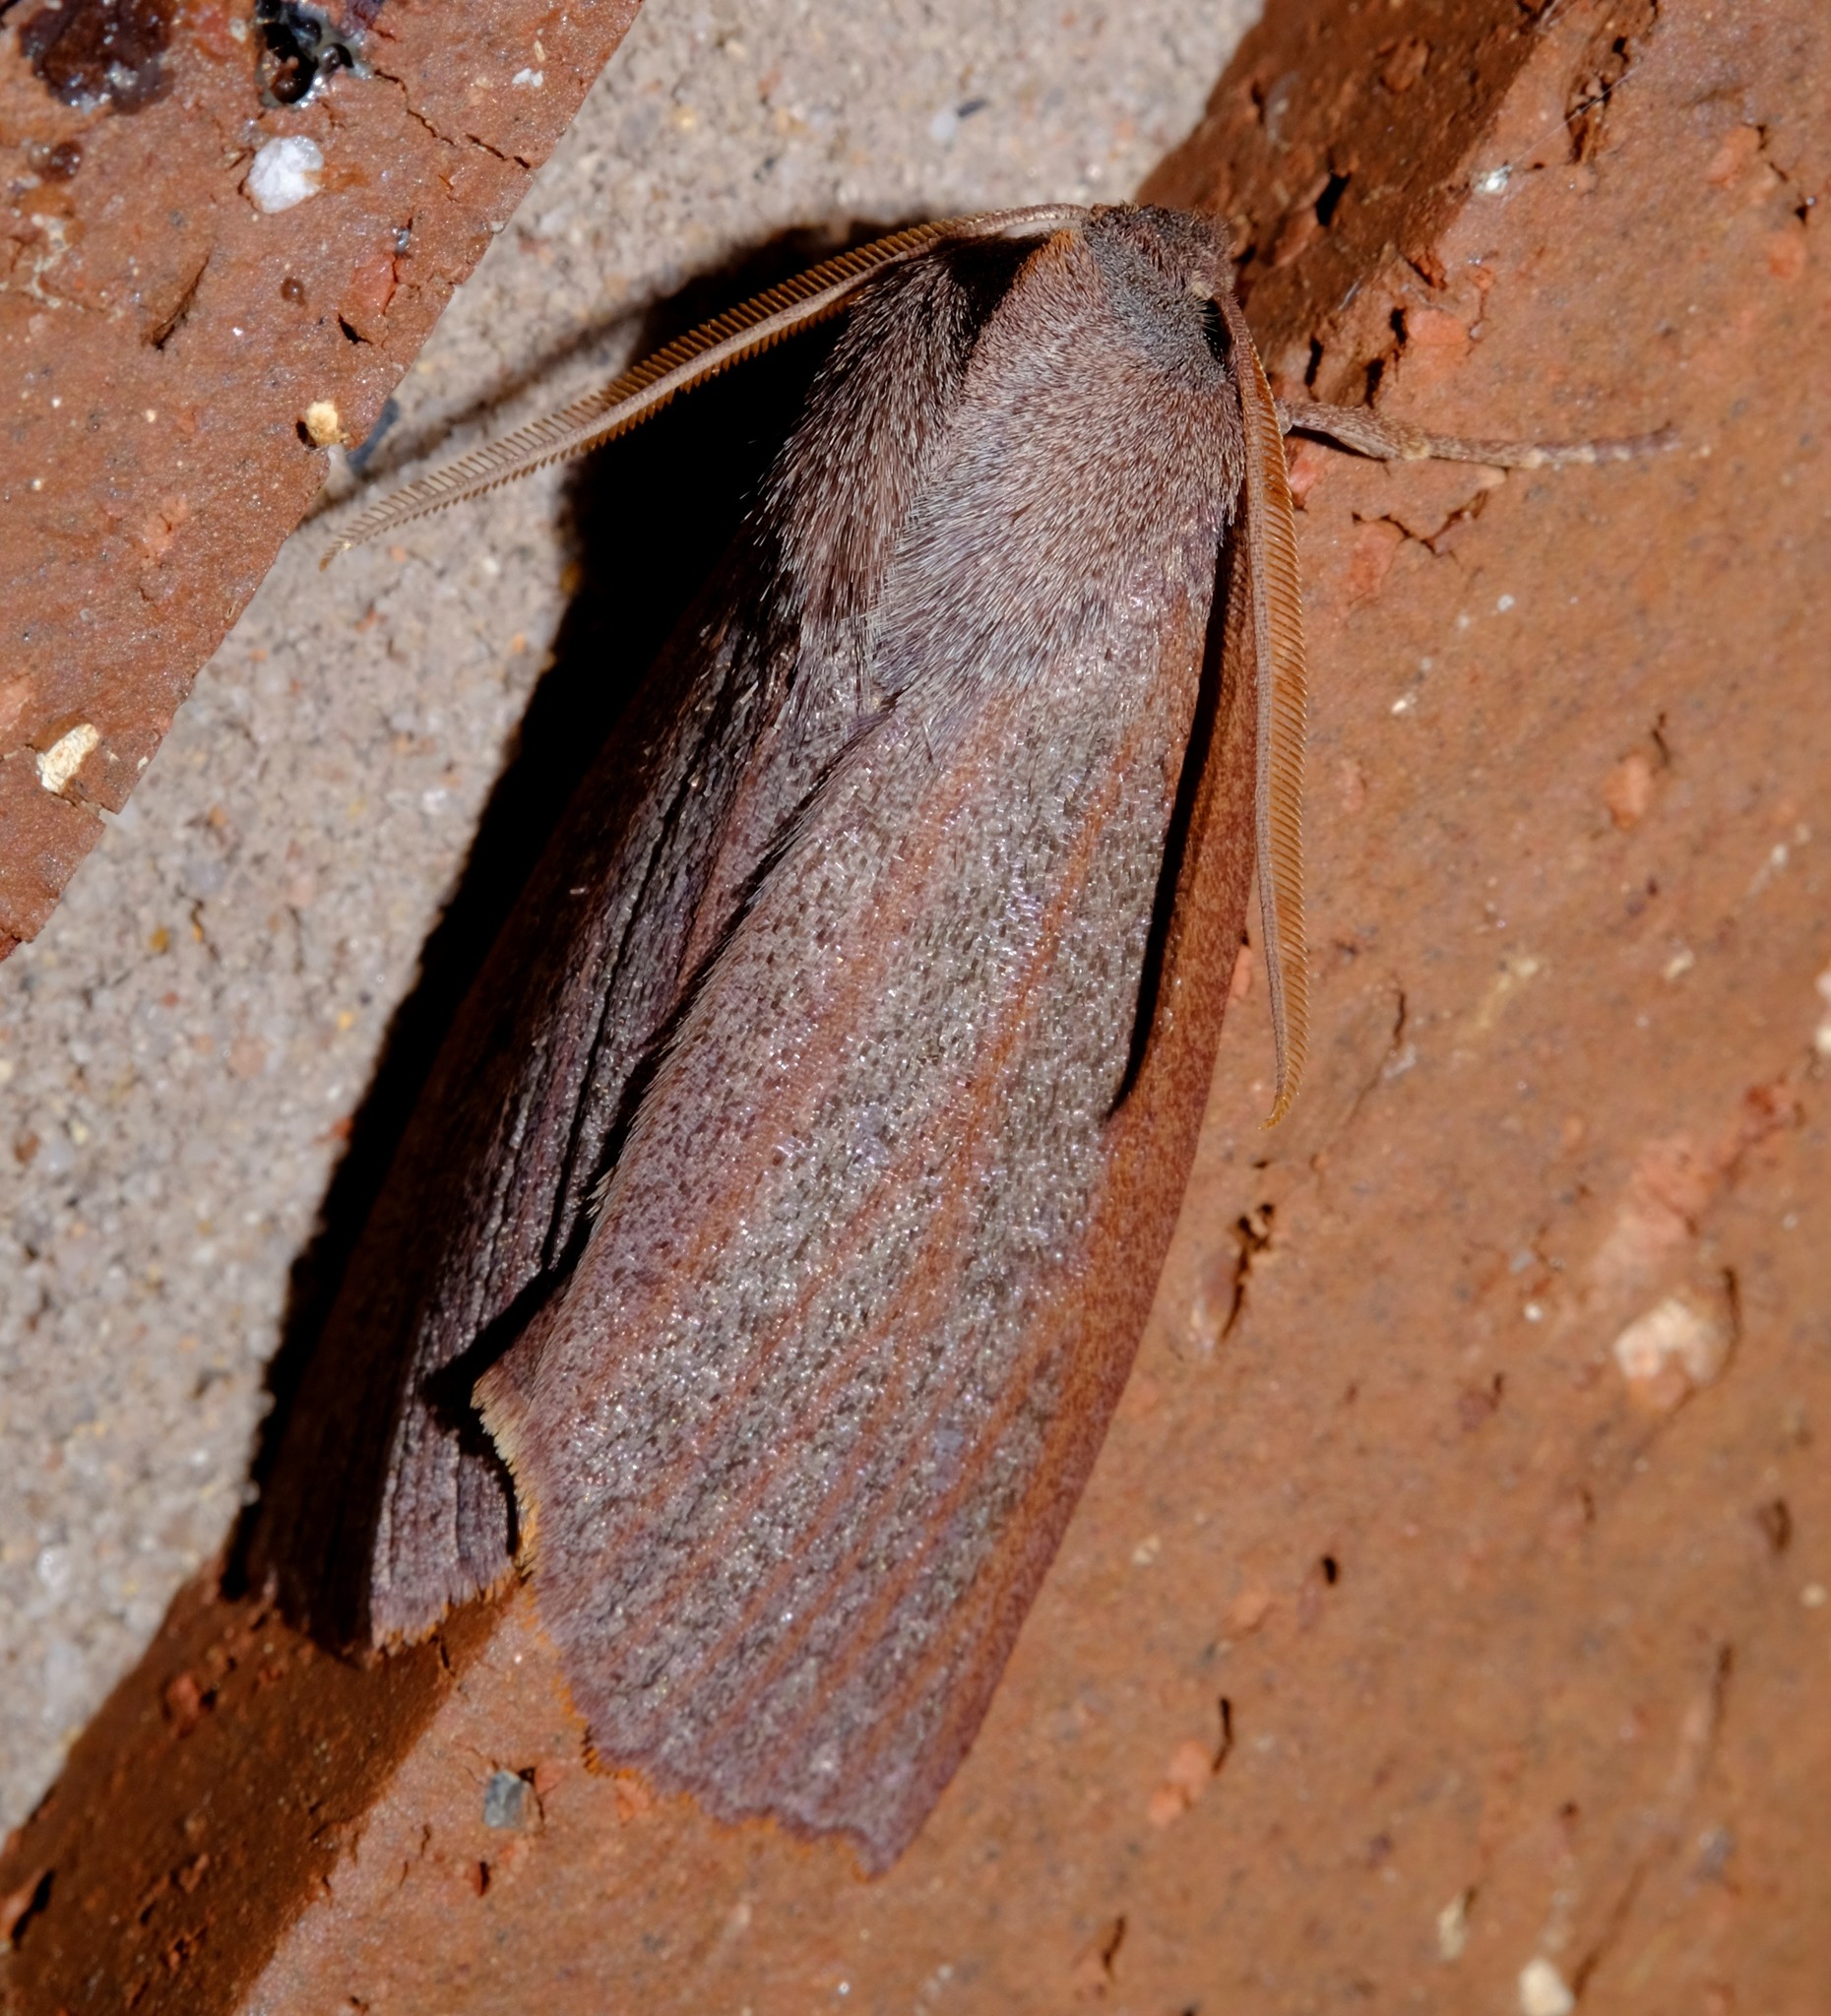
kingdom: Animalia
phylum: Arthropoda
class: Insecta
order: Lepidoptera
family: Geometridae
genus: Paralaea
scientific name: Paralaea porphyrinaria
